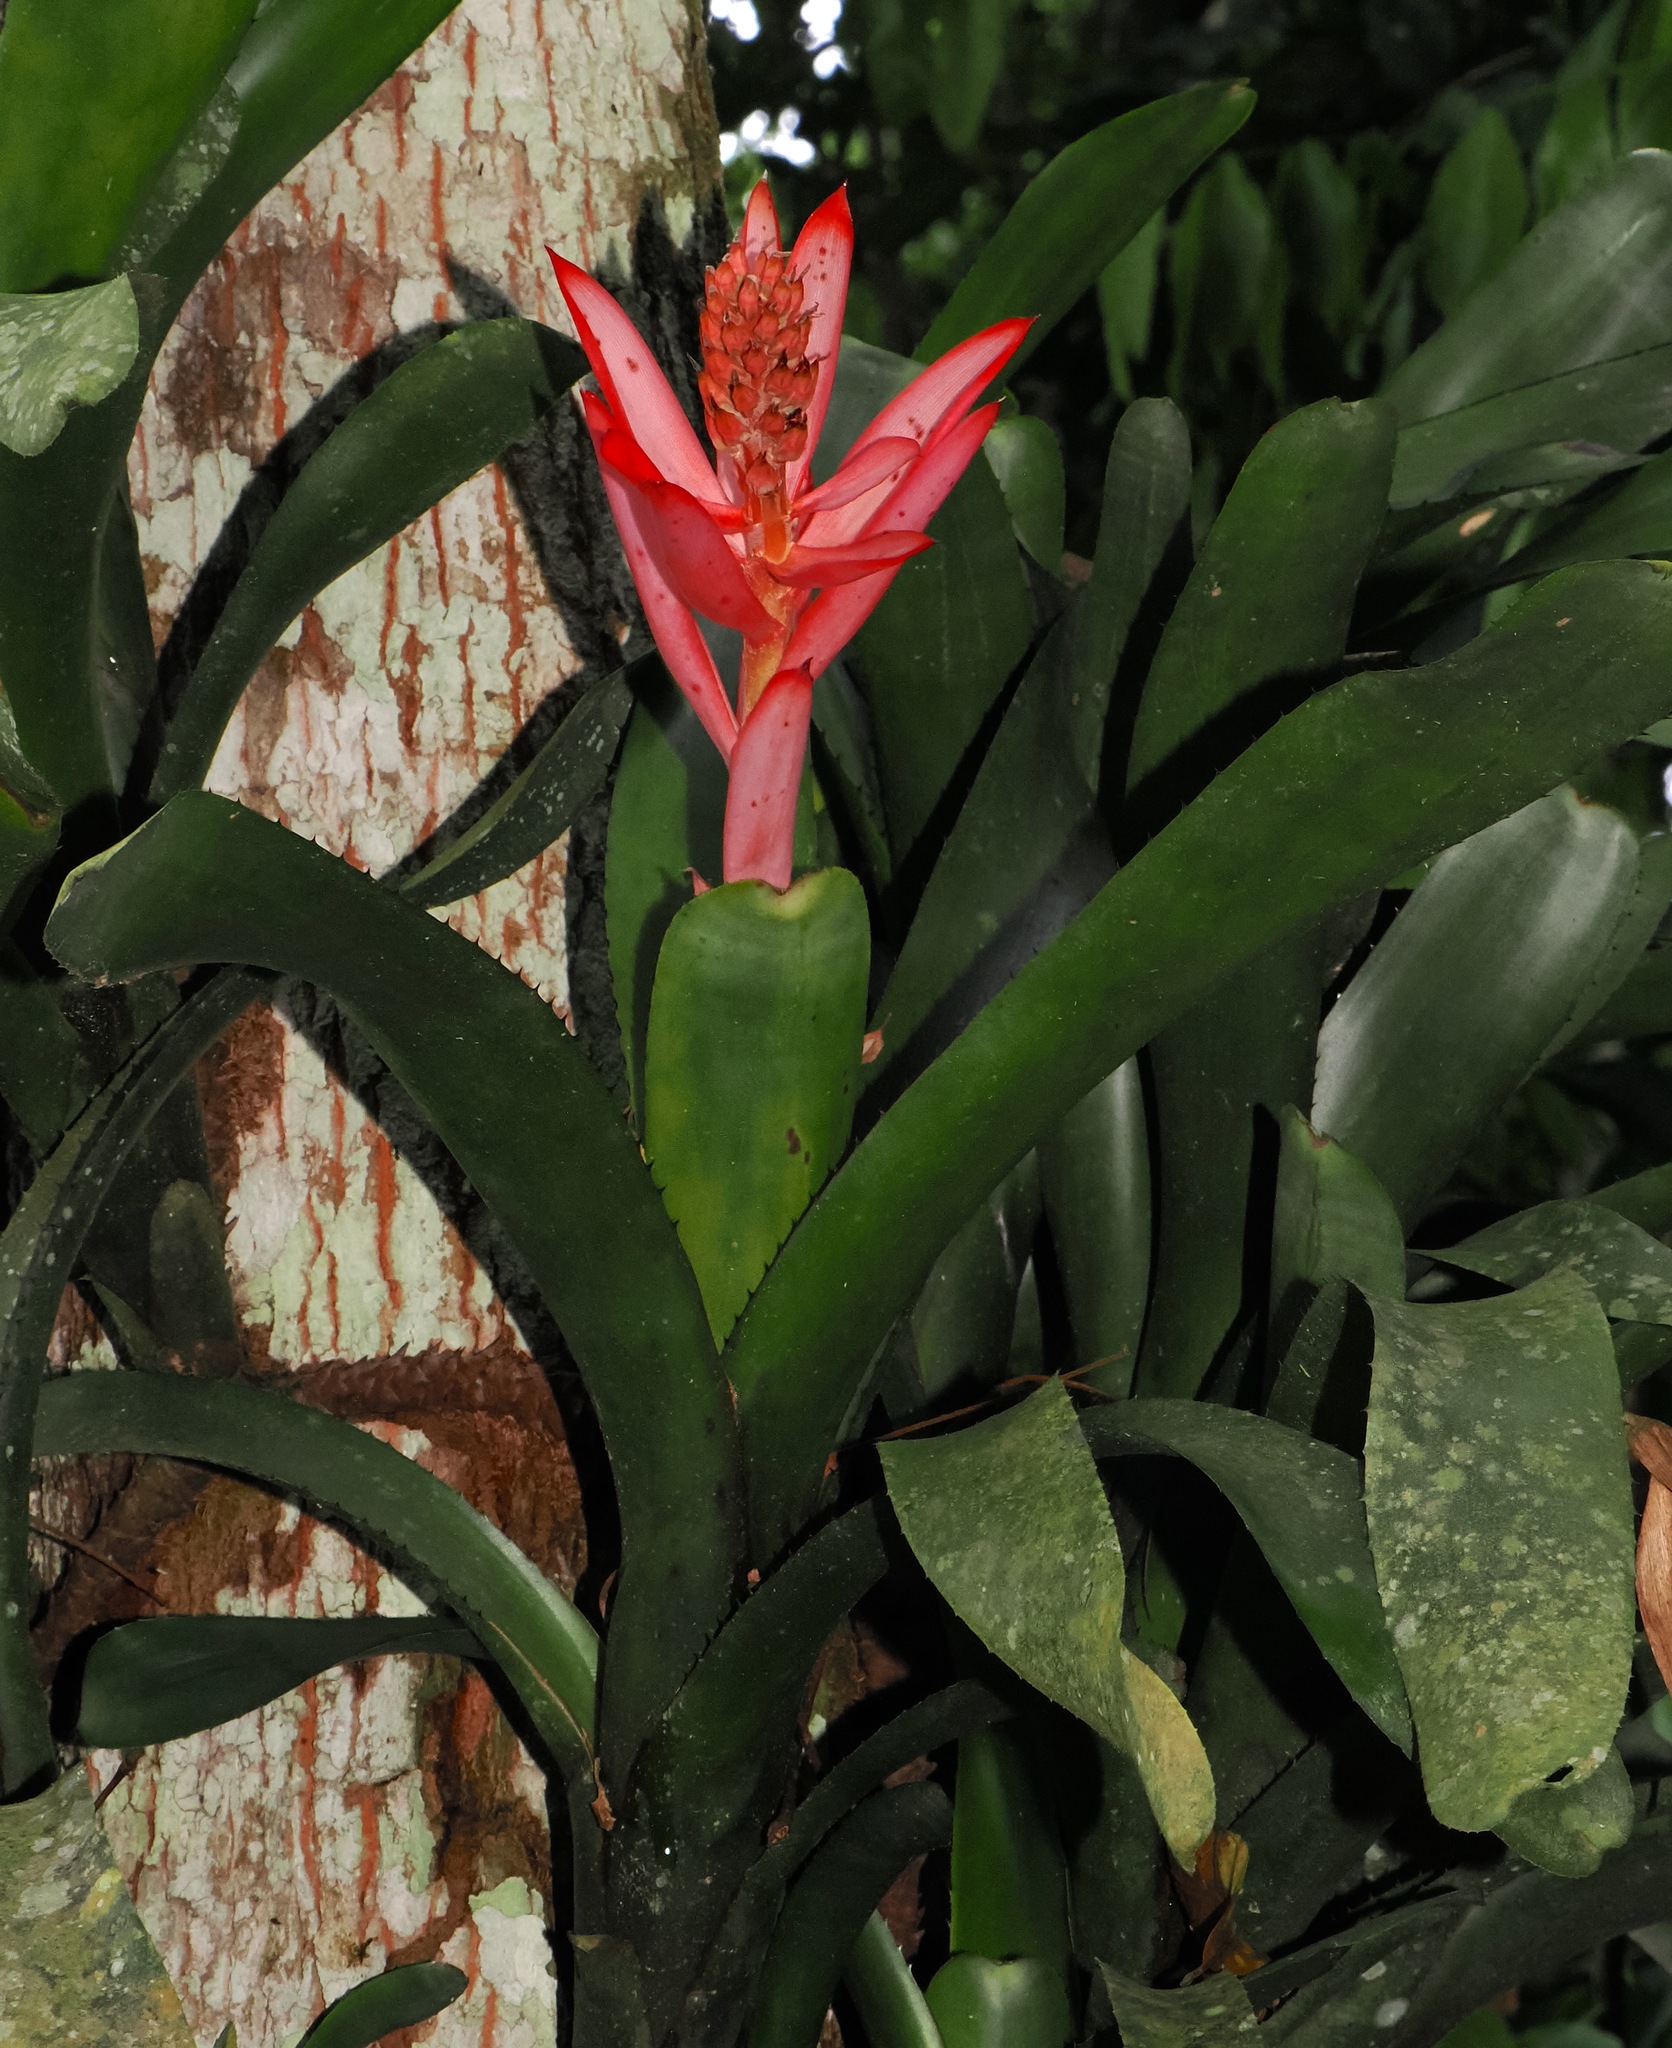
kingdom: Plantae
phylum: Tracheophyta
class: Liliopsida
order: Poales
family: Bromeliaceae
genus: Aechmea
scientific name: Aechmea nudicaulis
